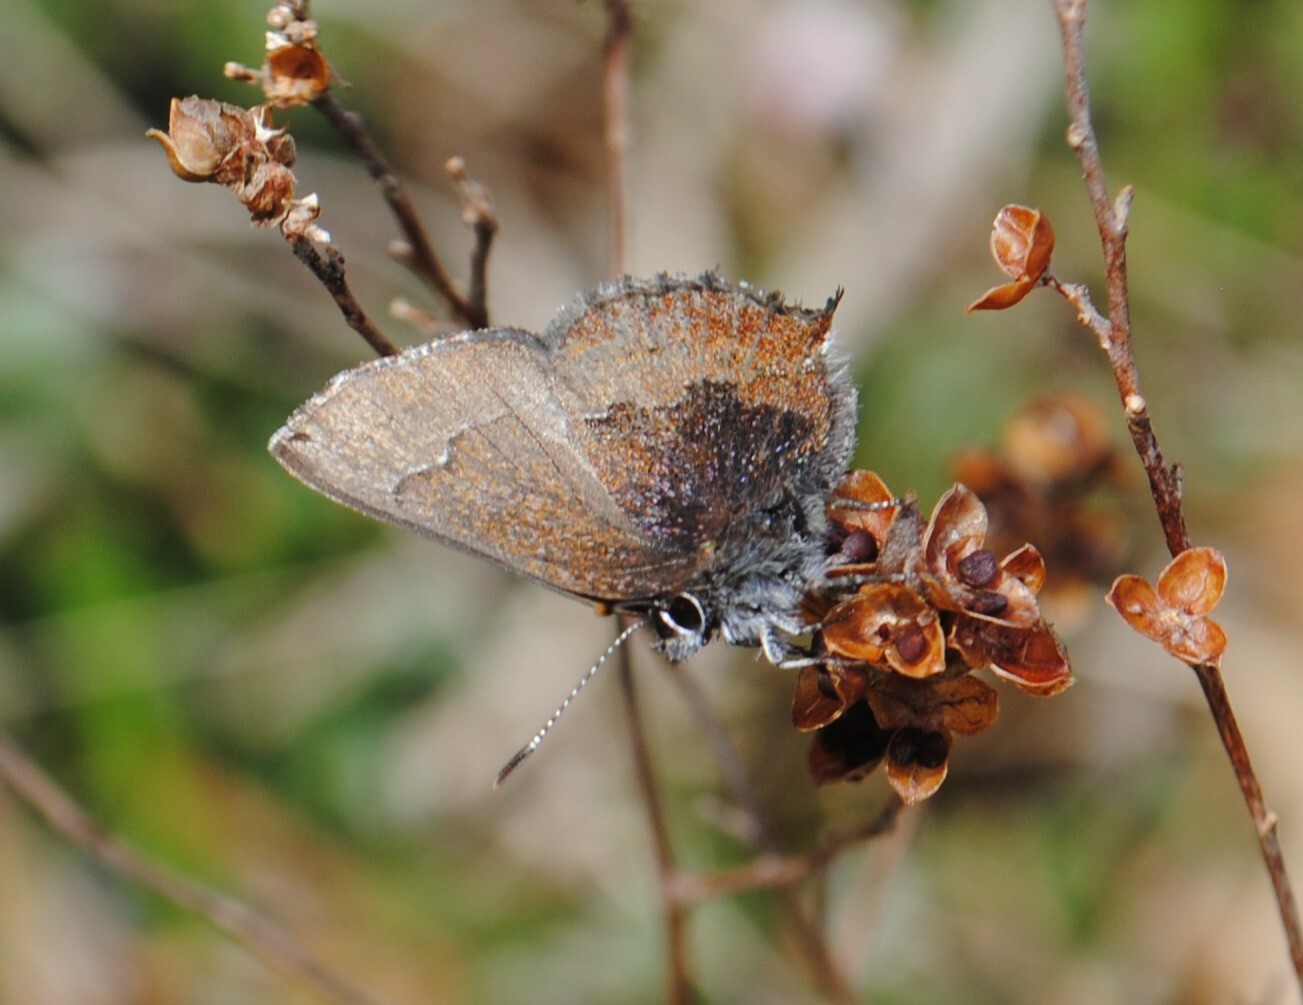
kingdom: Animalia
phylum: Arthropoda
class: Insecta
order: Lepidoptera
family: Lycaenidae
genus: Incisalia
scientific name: Incisalia irioides
